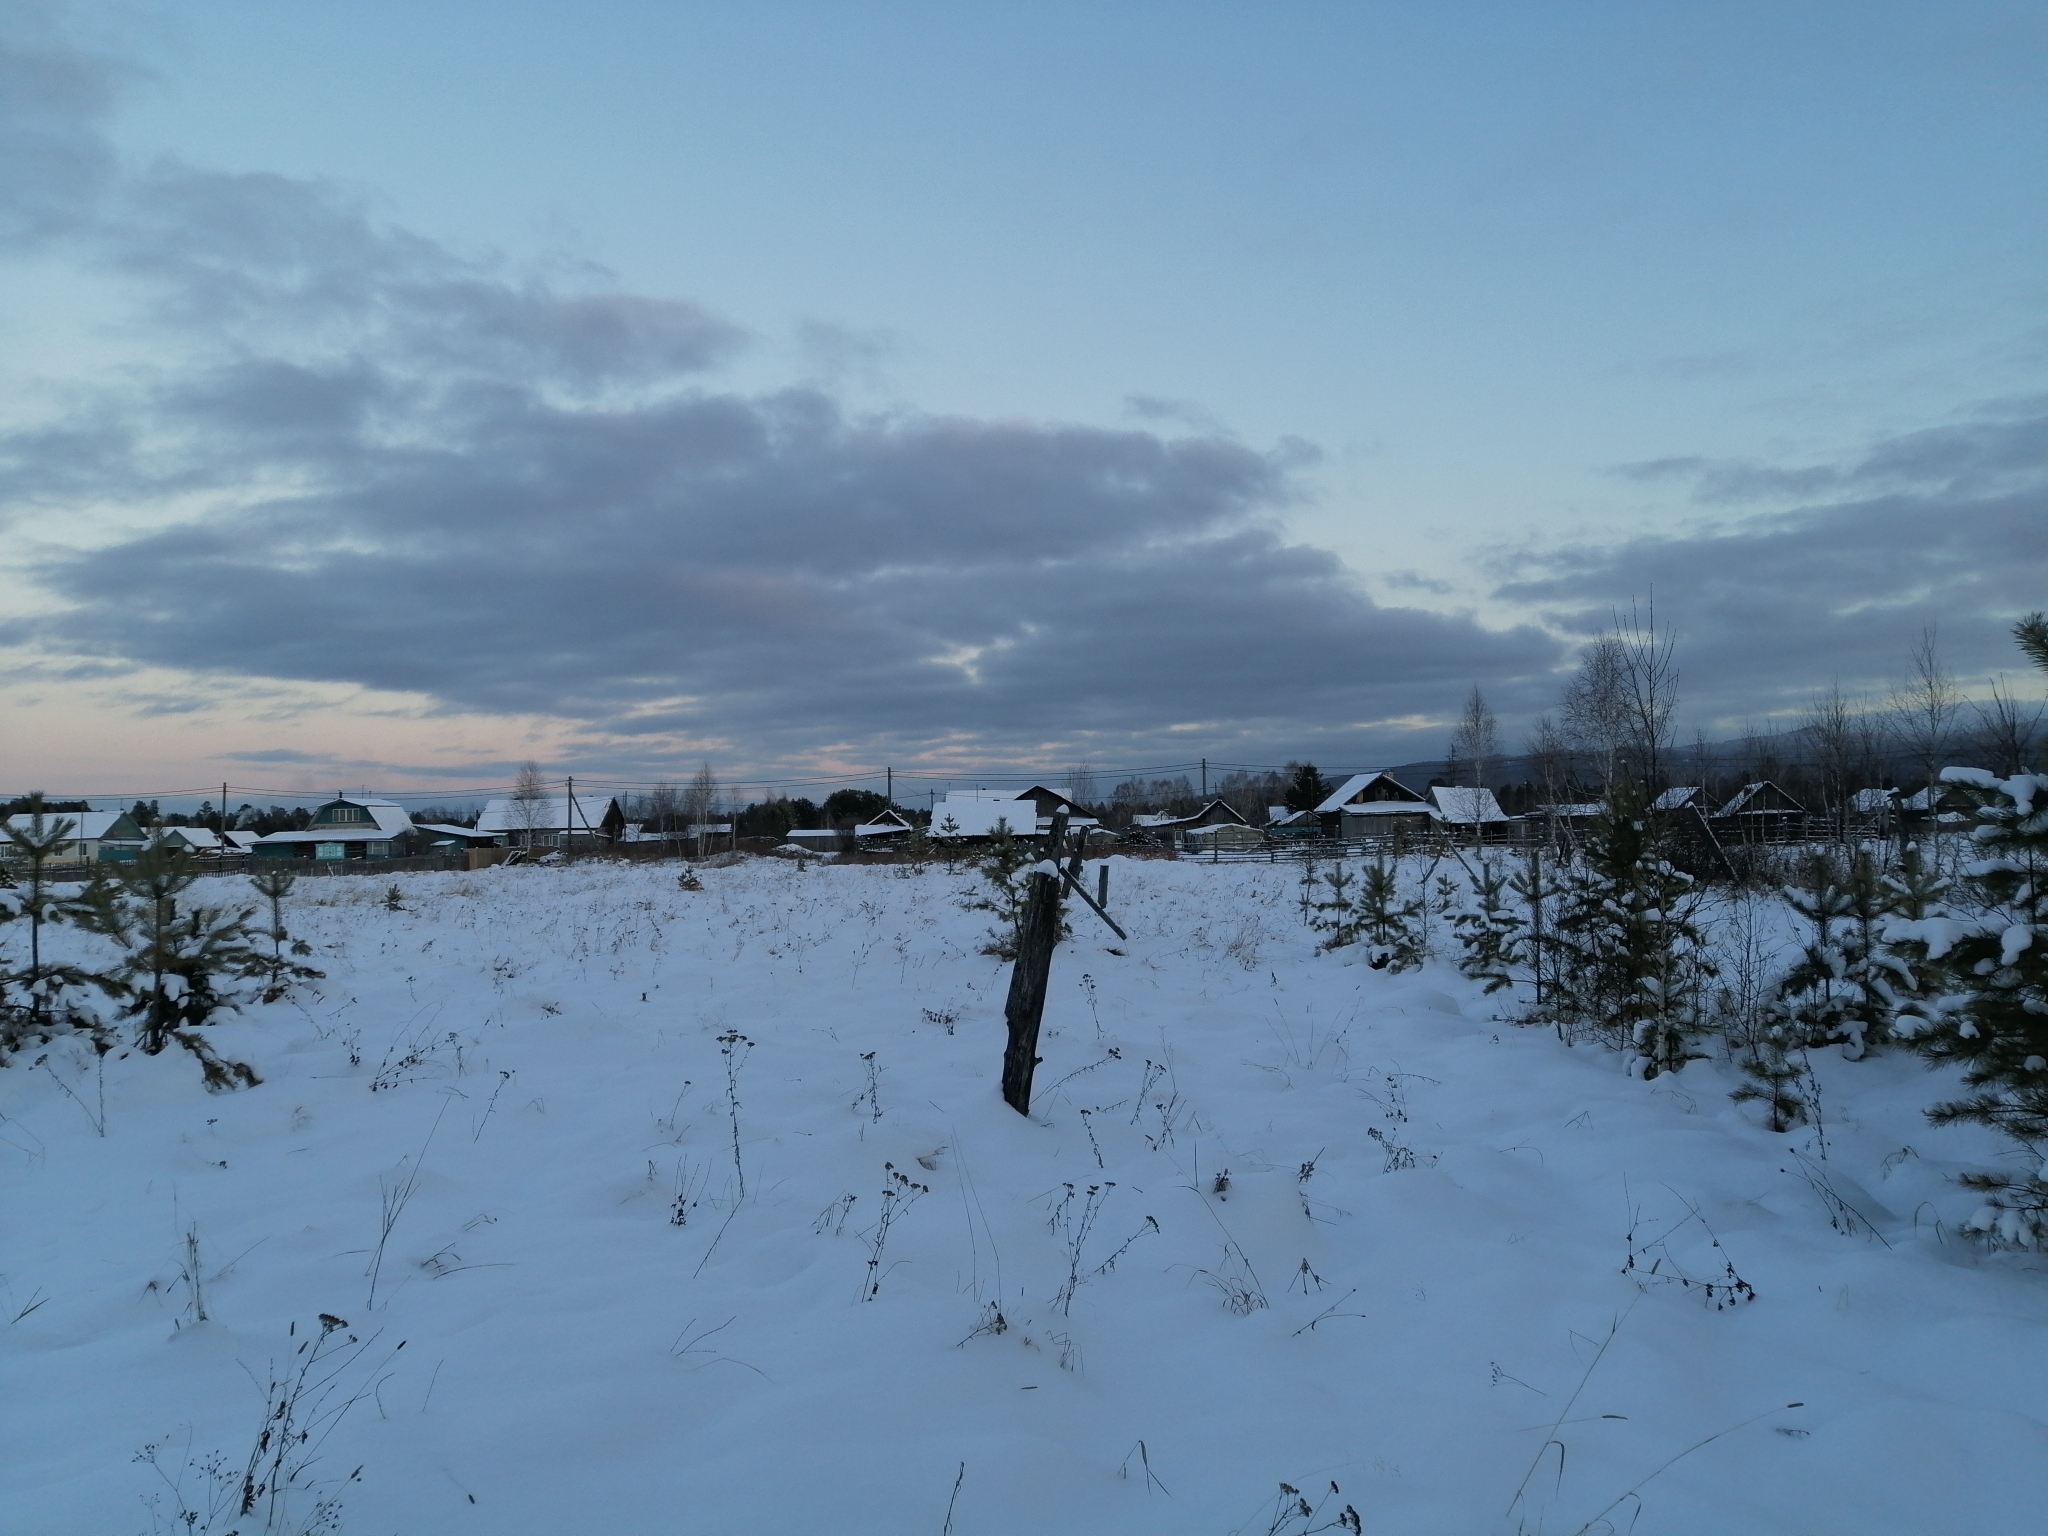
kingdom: Plantae
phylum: Tracheophyta
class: Pinopsida
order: Pinales
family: Pinaceae
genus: Pinus
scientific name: Pinus sylvestris
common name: Scots pine
